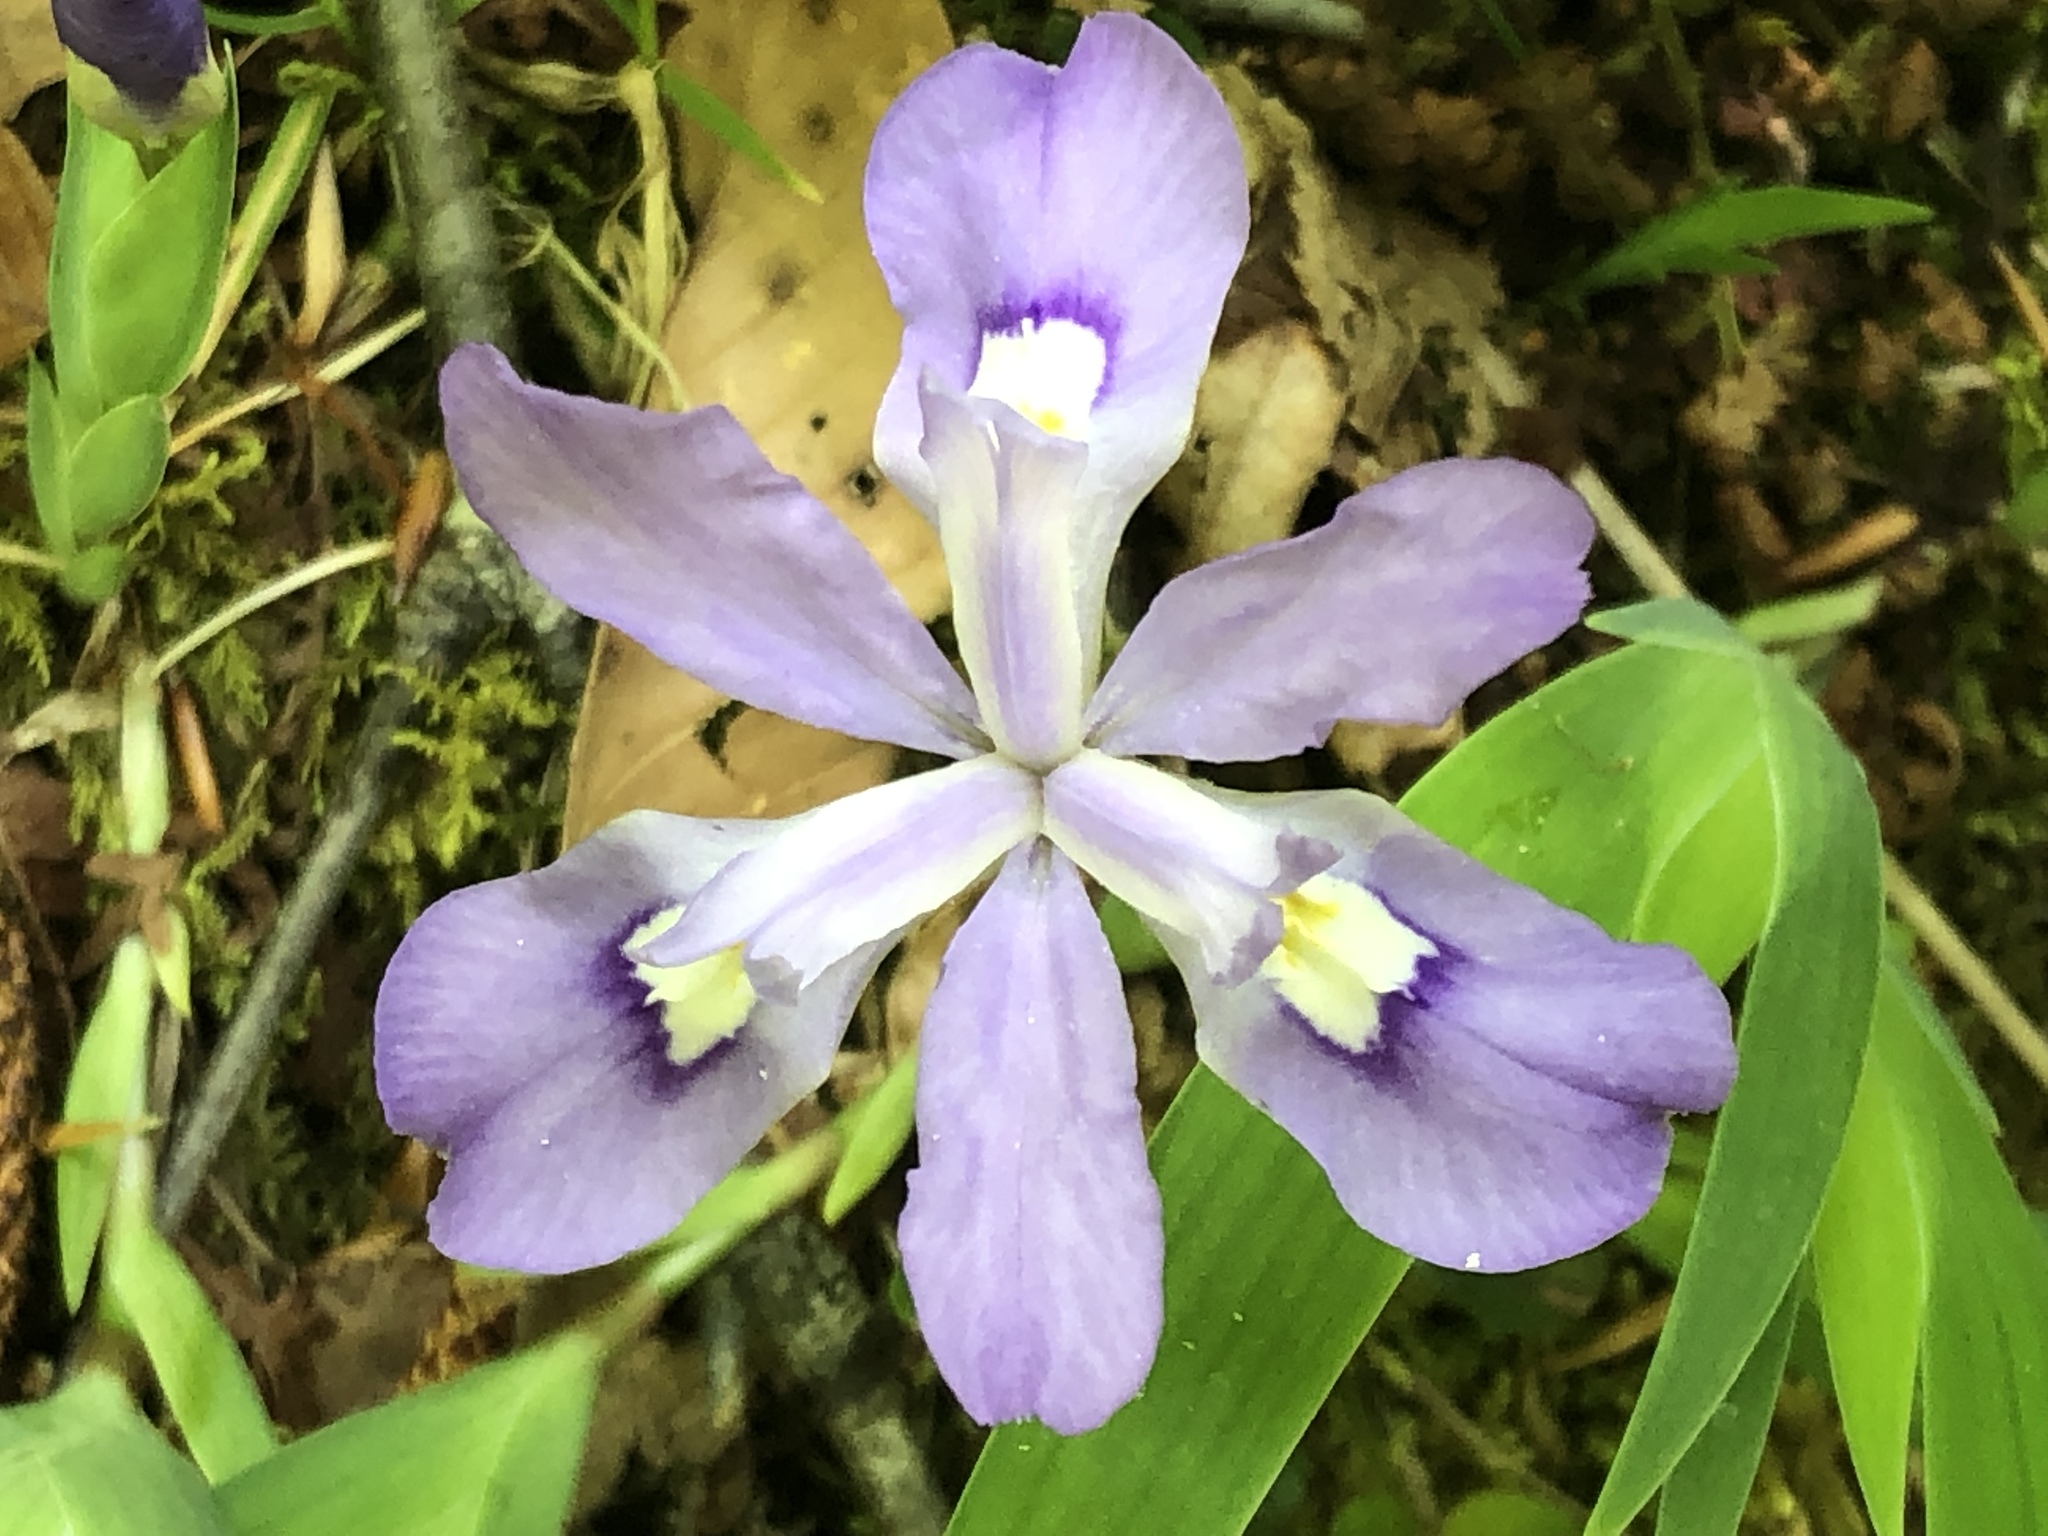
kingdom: Plantae
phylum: Tracheophyta
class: Liliopsida
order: Asparagales
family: Iridaceae
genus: Iris
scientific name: Iris cristata
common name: Crested iris
